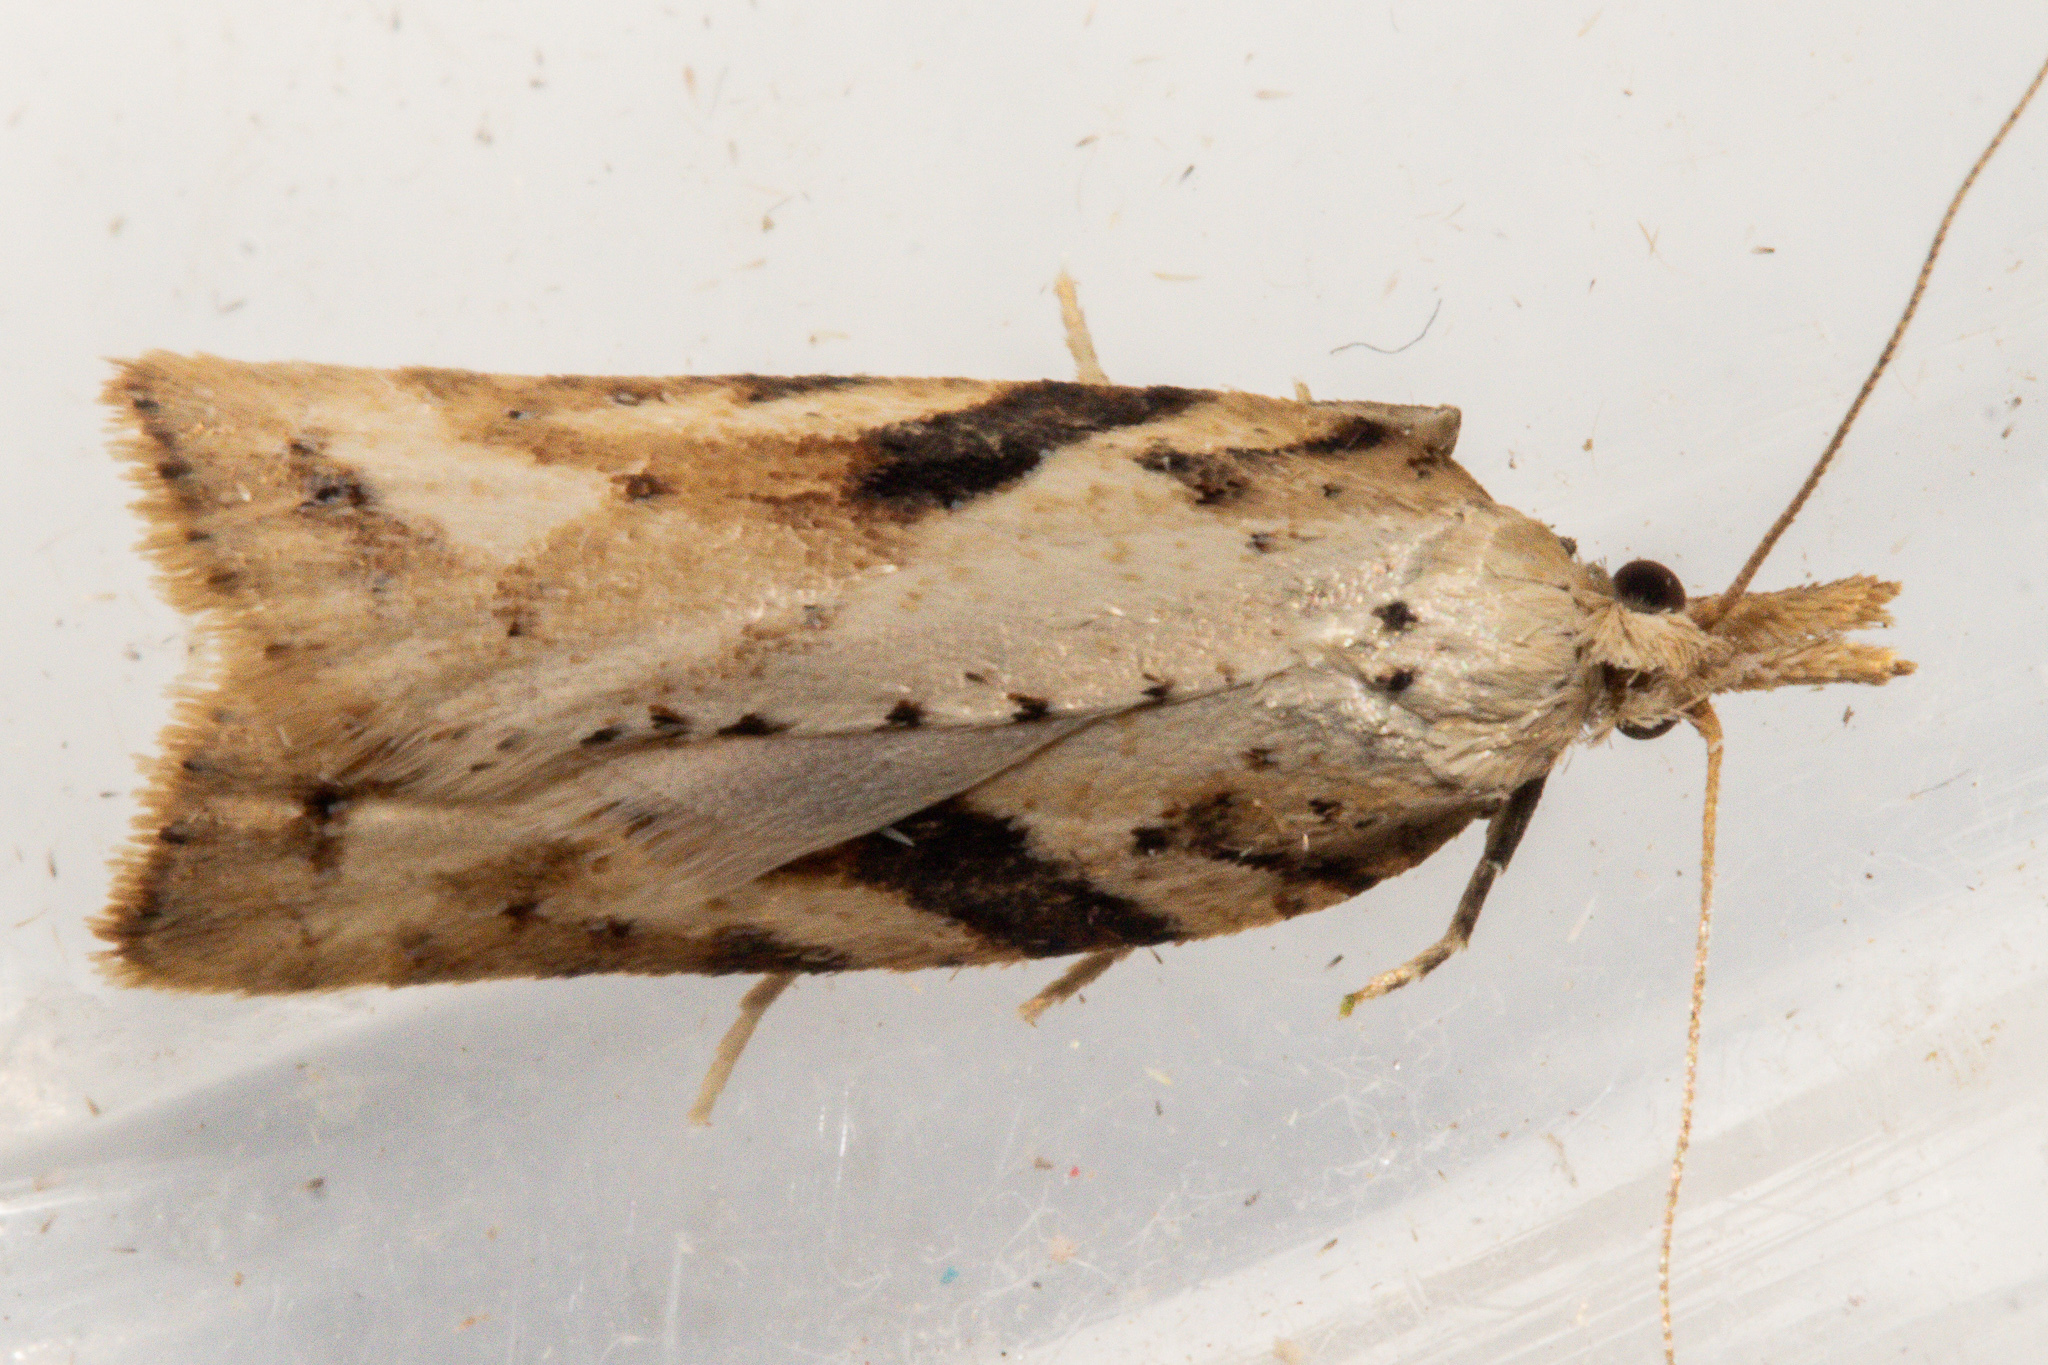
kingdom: Animalia
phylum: Arthropoda
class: Insecta
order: Lepidoptera
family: Tortricidae
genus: Apoctena
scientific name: Apoctena persecta
